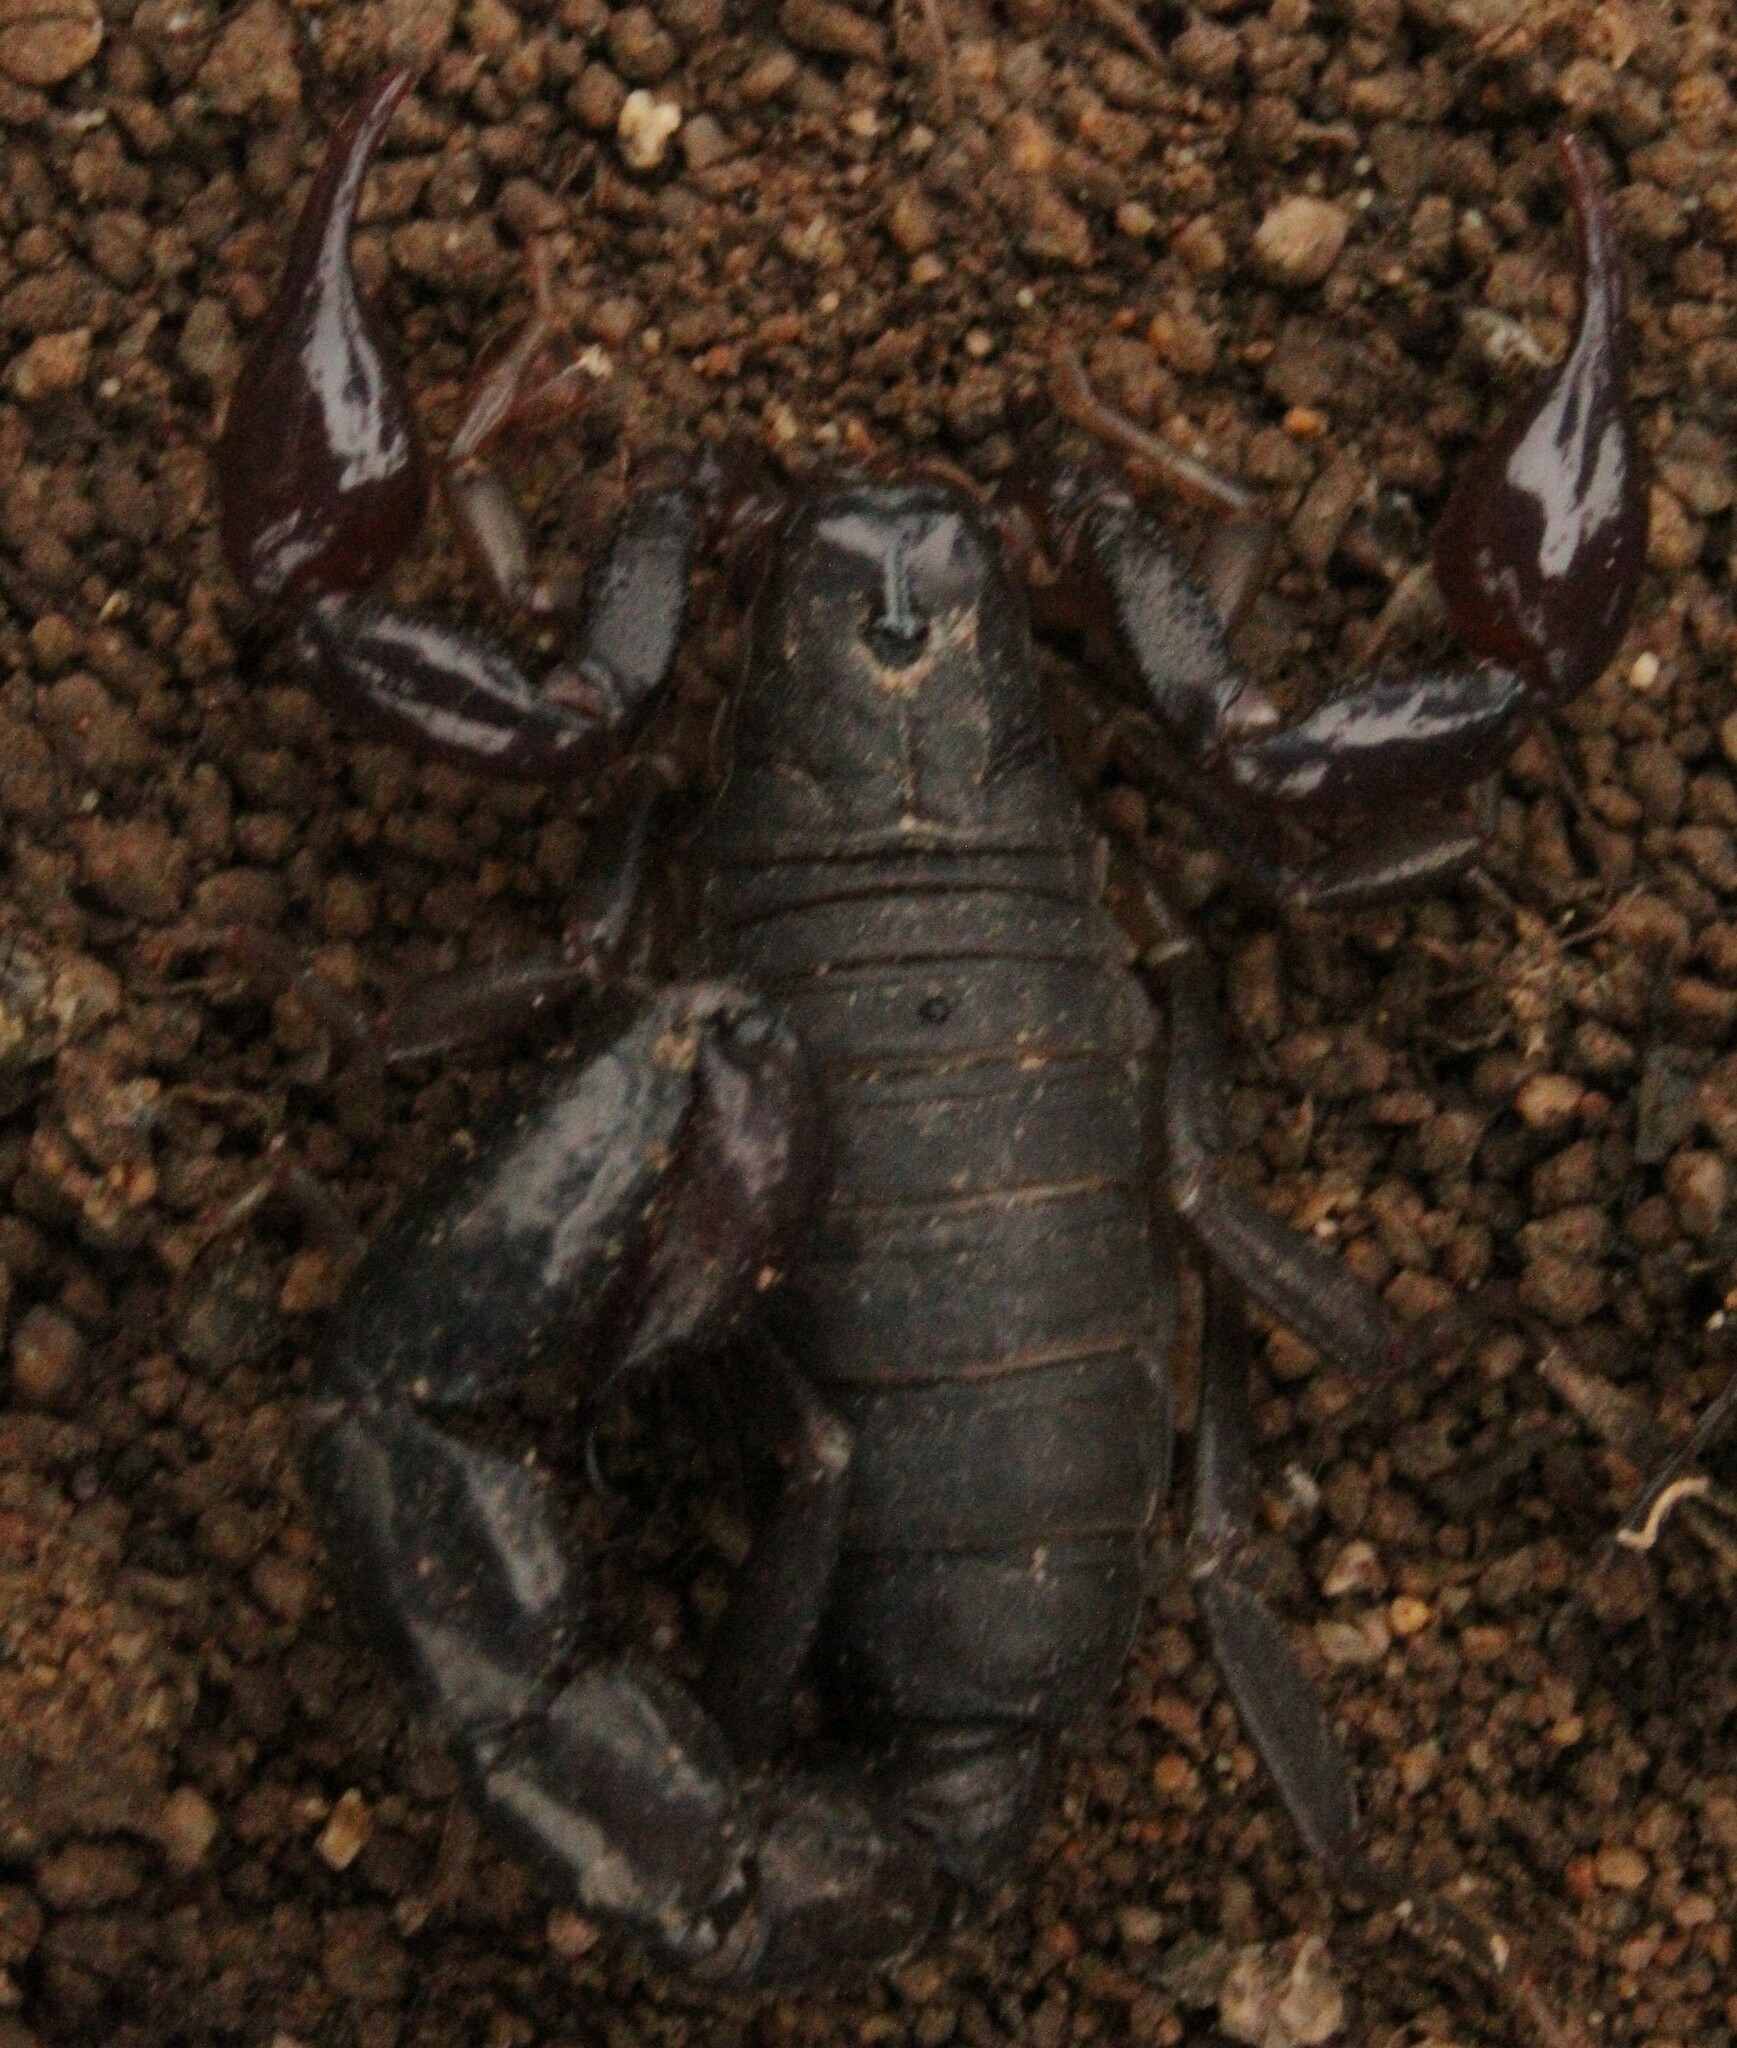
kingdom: Animalia
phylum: Arthropoda
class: Arachnida
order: Scorpiones
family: Caraboctonidae
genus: Caraboctonus
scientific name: Caraboctonus keyserlingi
